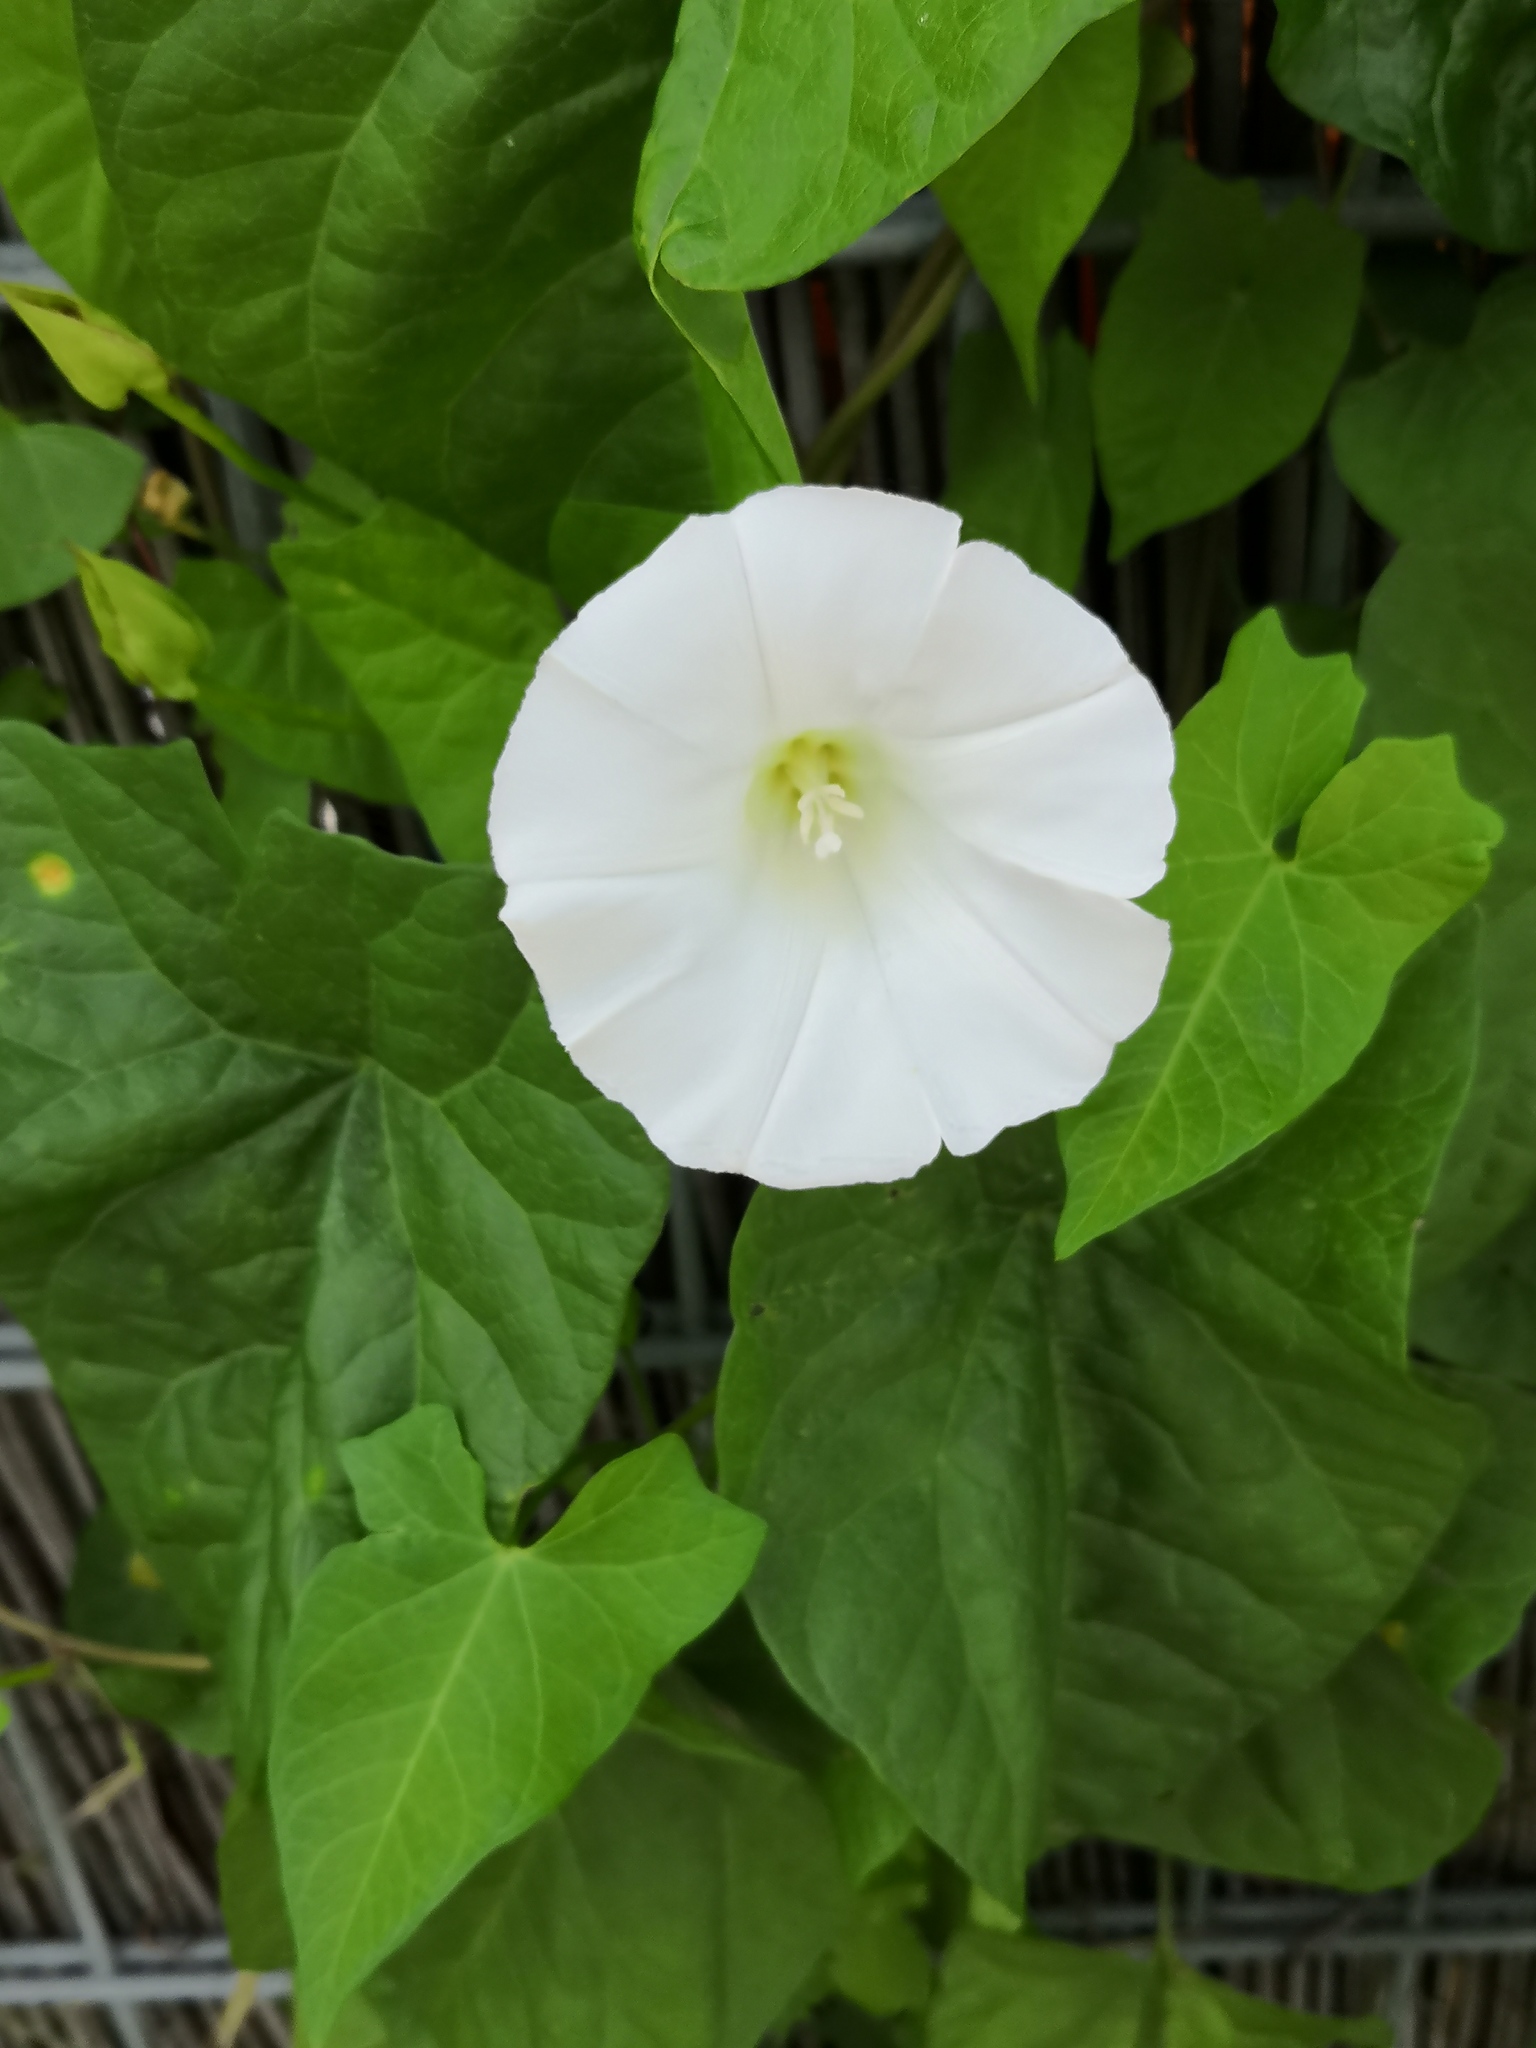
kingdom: Plantae
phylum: Tracheophyta
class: Magnoliopsida
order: Solanales
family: Convolvulaceae
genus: Calystegia
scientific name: Calystegia sepium
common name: Hedge bindweed
